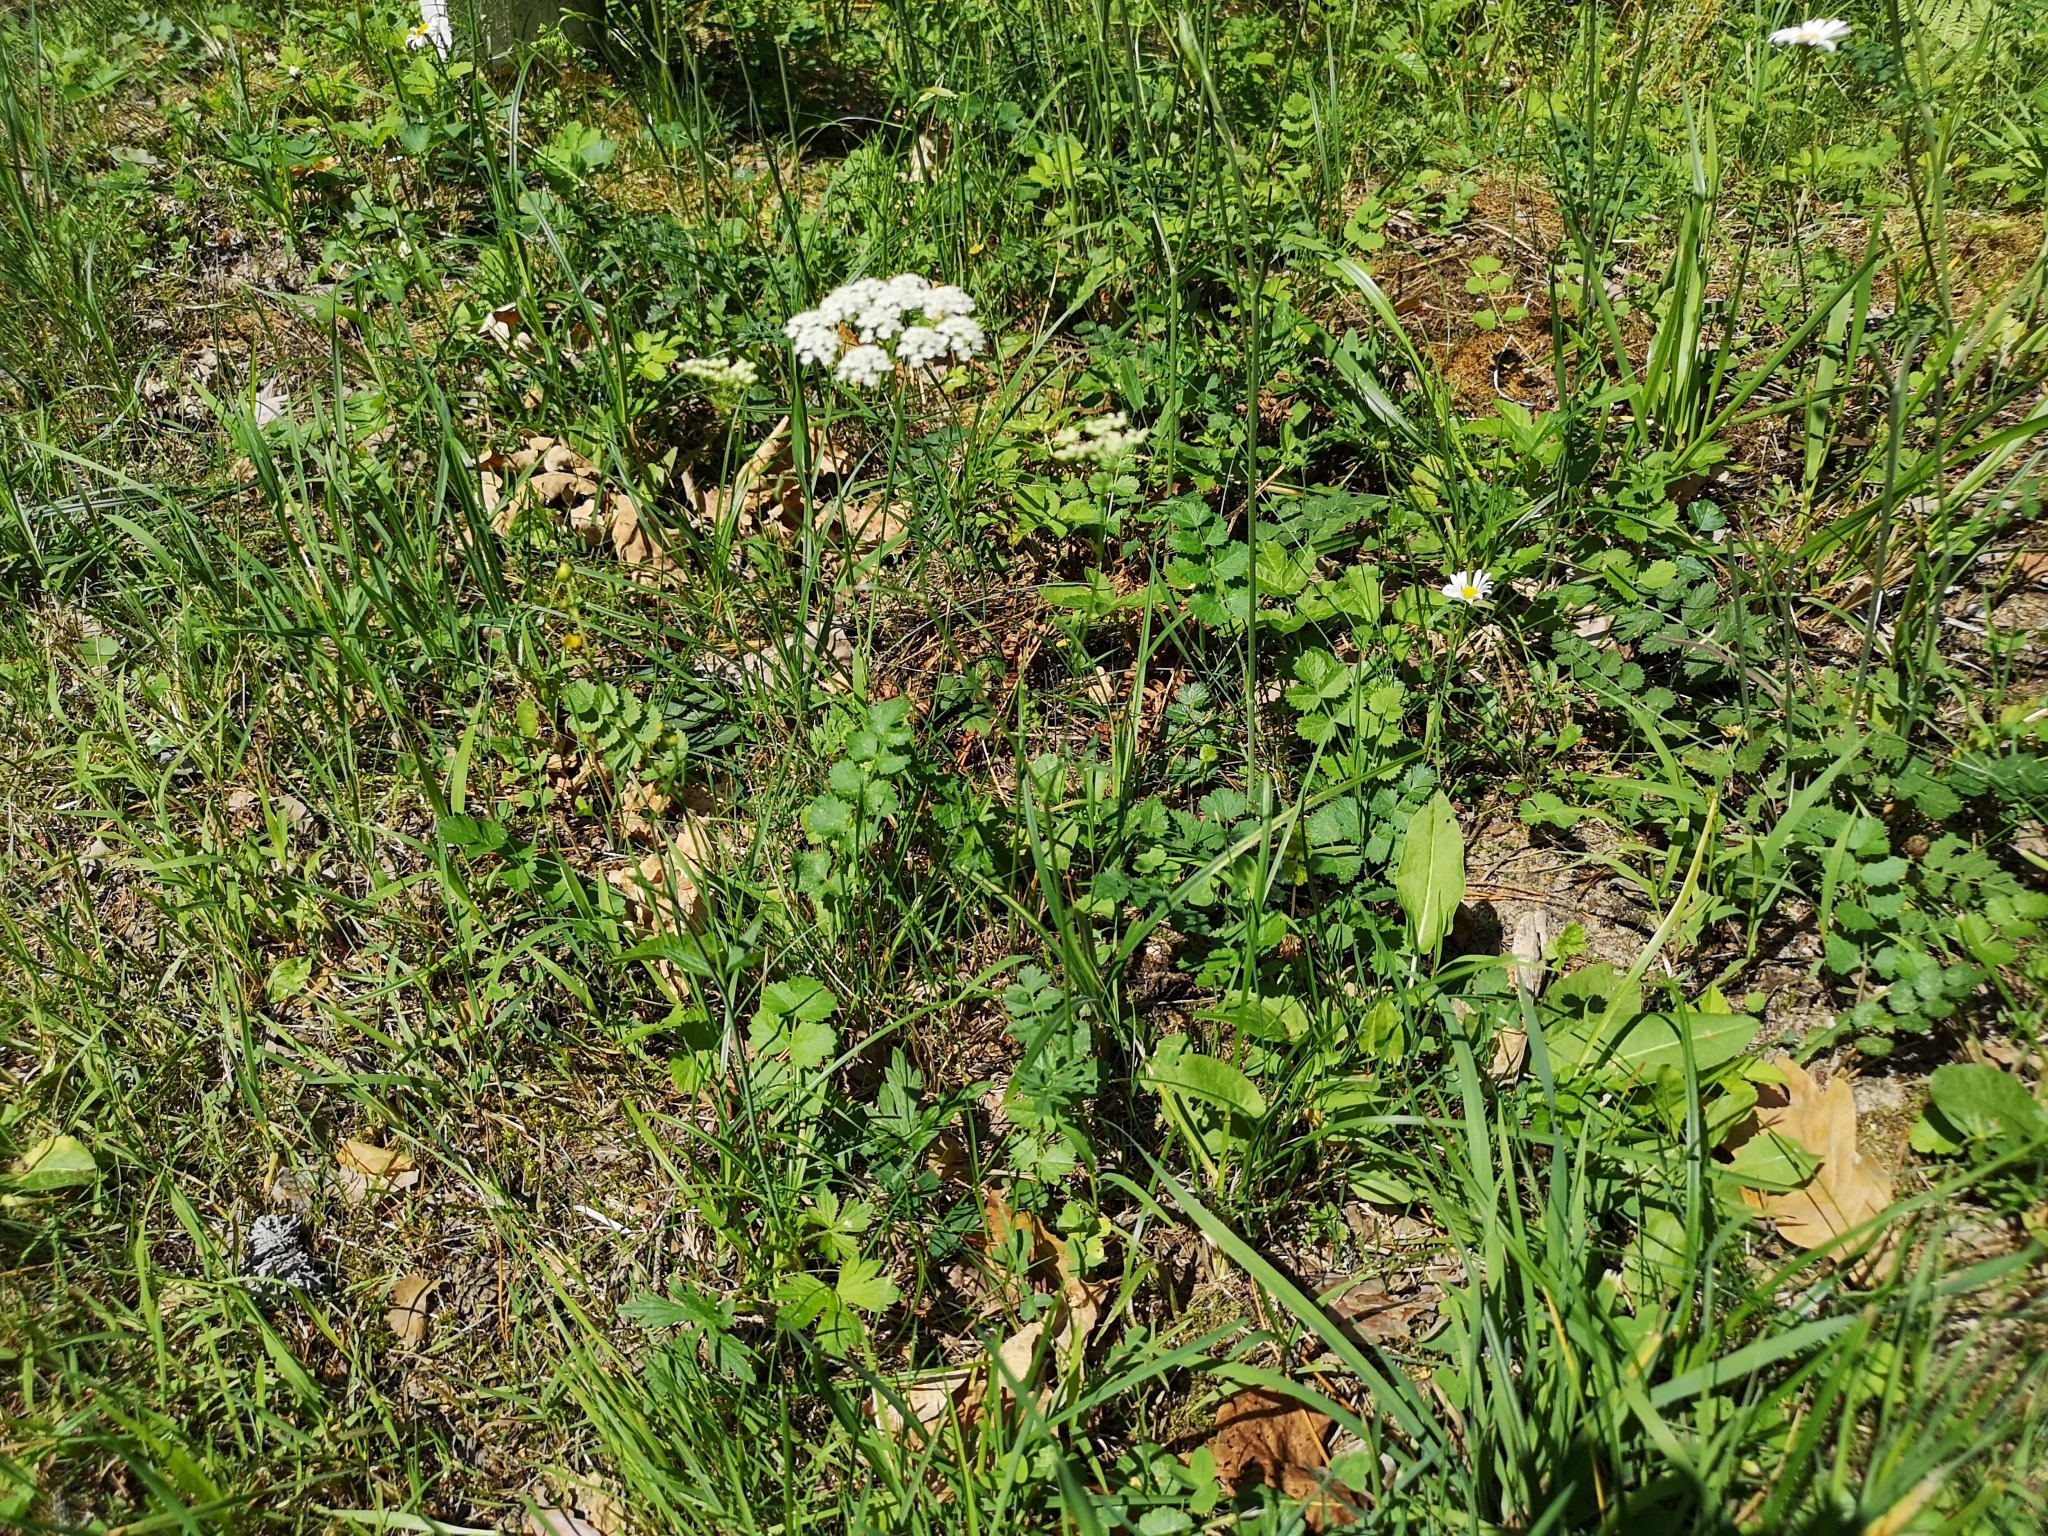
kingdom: Plantae
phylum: Tracheophyta
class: Magnoliopsida
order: Apiales
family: Apiaceae
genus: Pimpinella
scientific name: Pimpinella saxifraga
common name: Burnet-saxifrage
